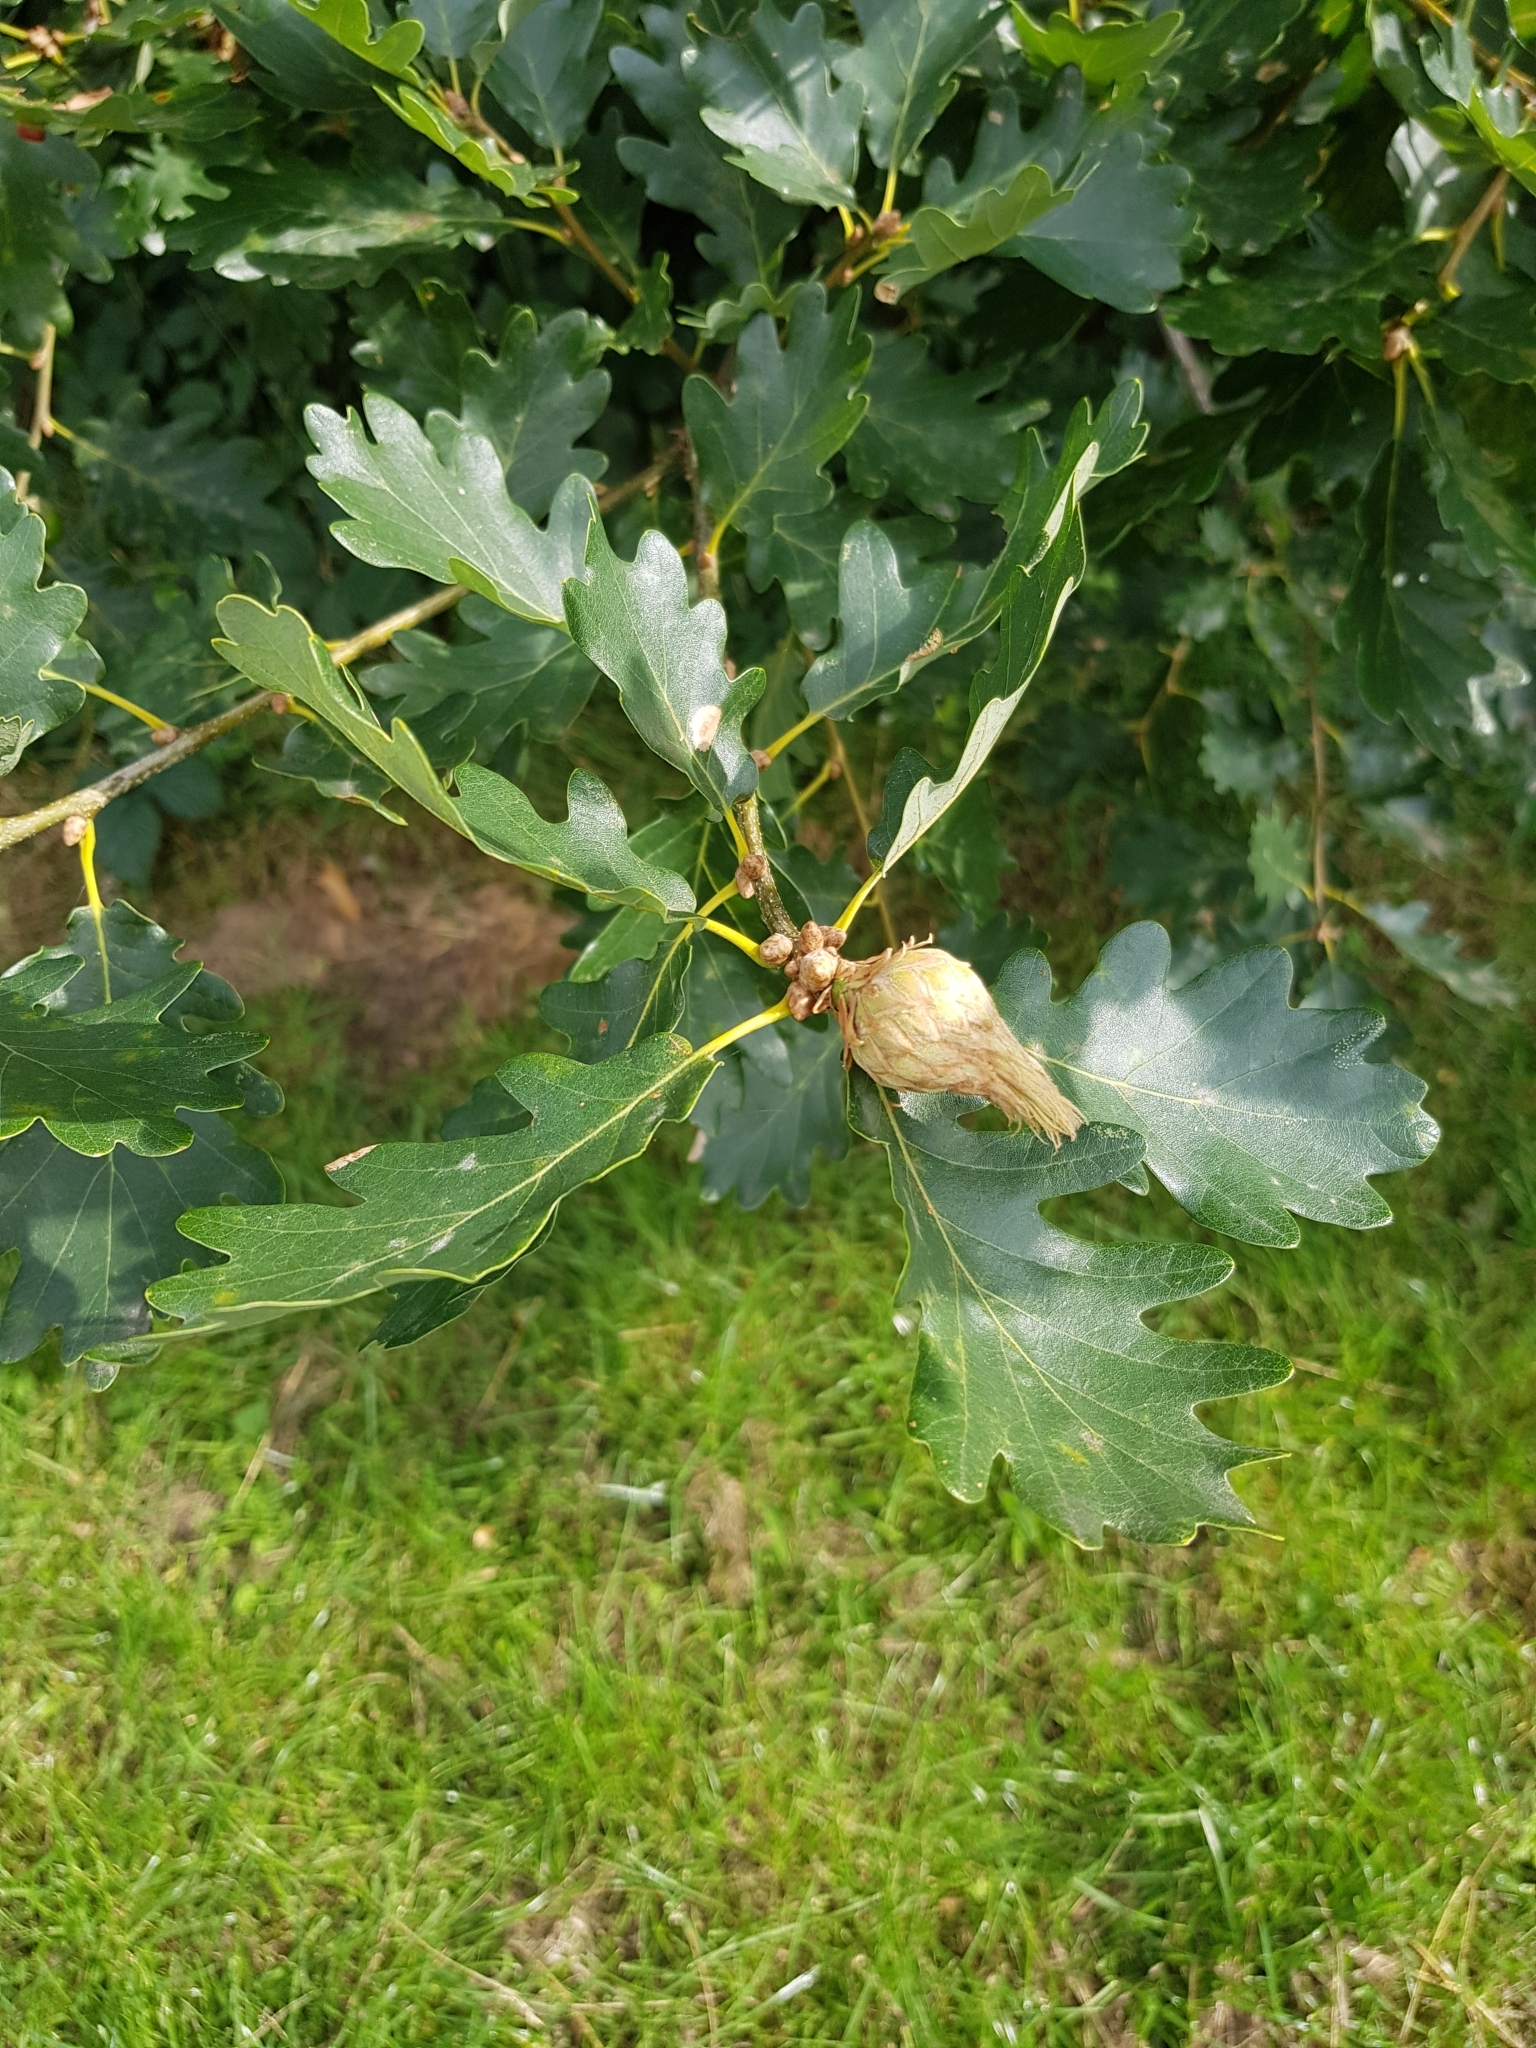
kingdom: Animalia
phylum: Arthropoda
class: Insecta
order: Hymenoptera
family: Cynipidae
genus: Andricus
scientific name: Andricus foecundatrix
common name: Artichoke gall
